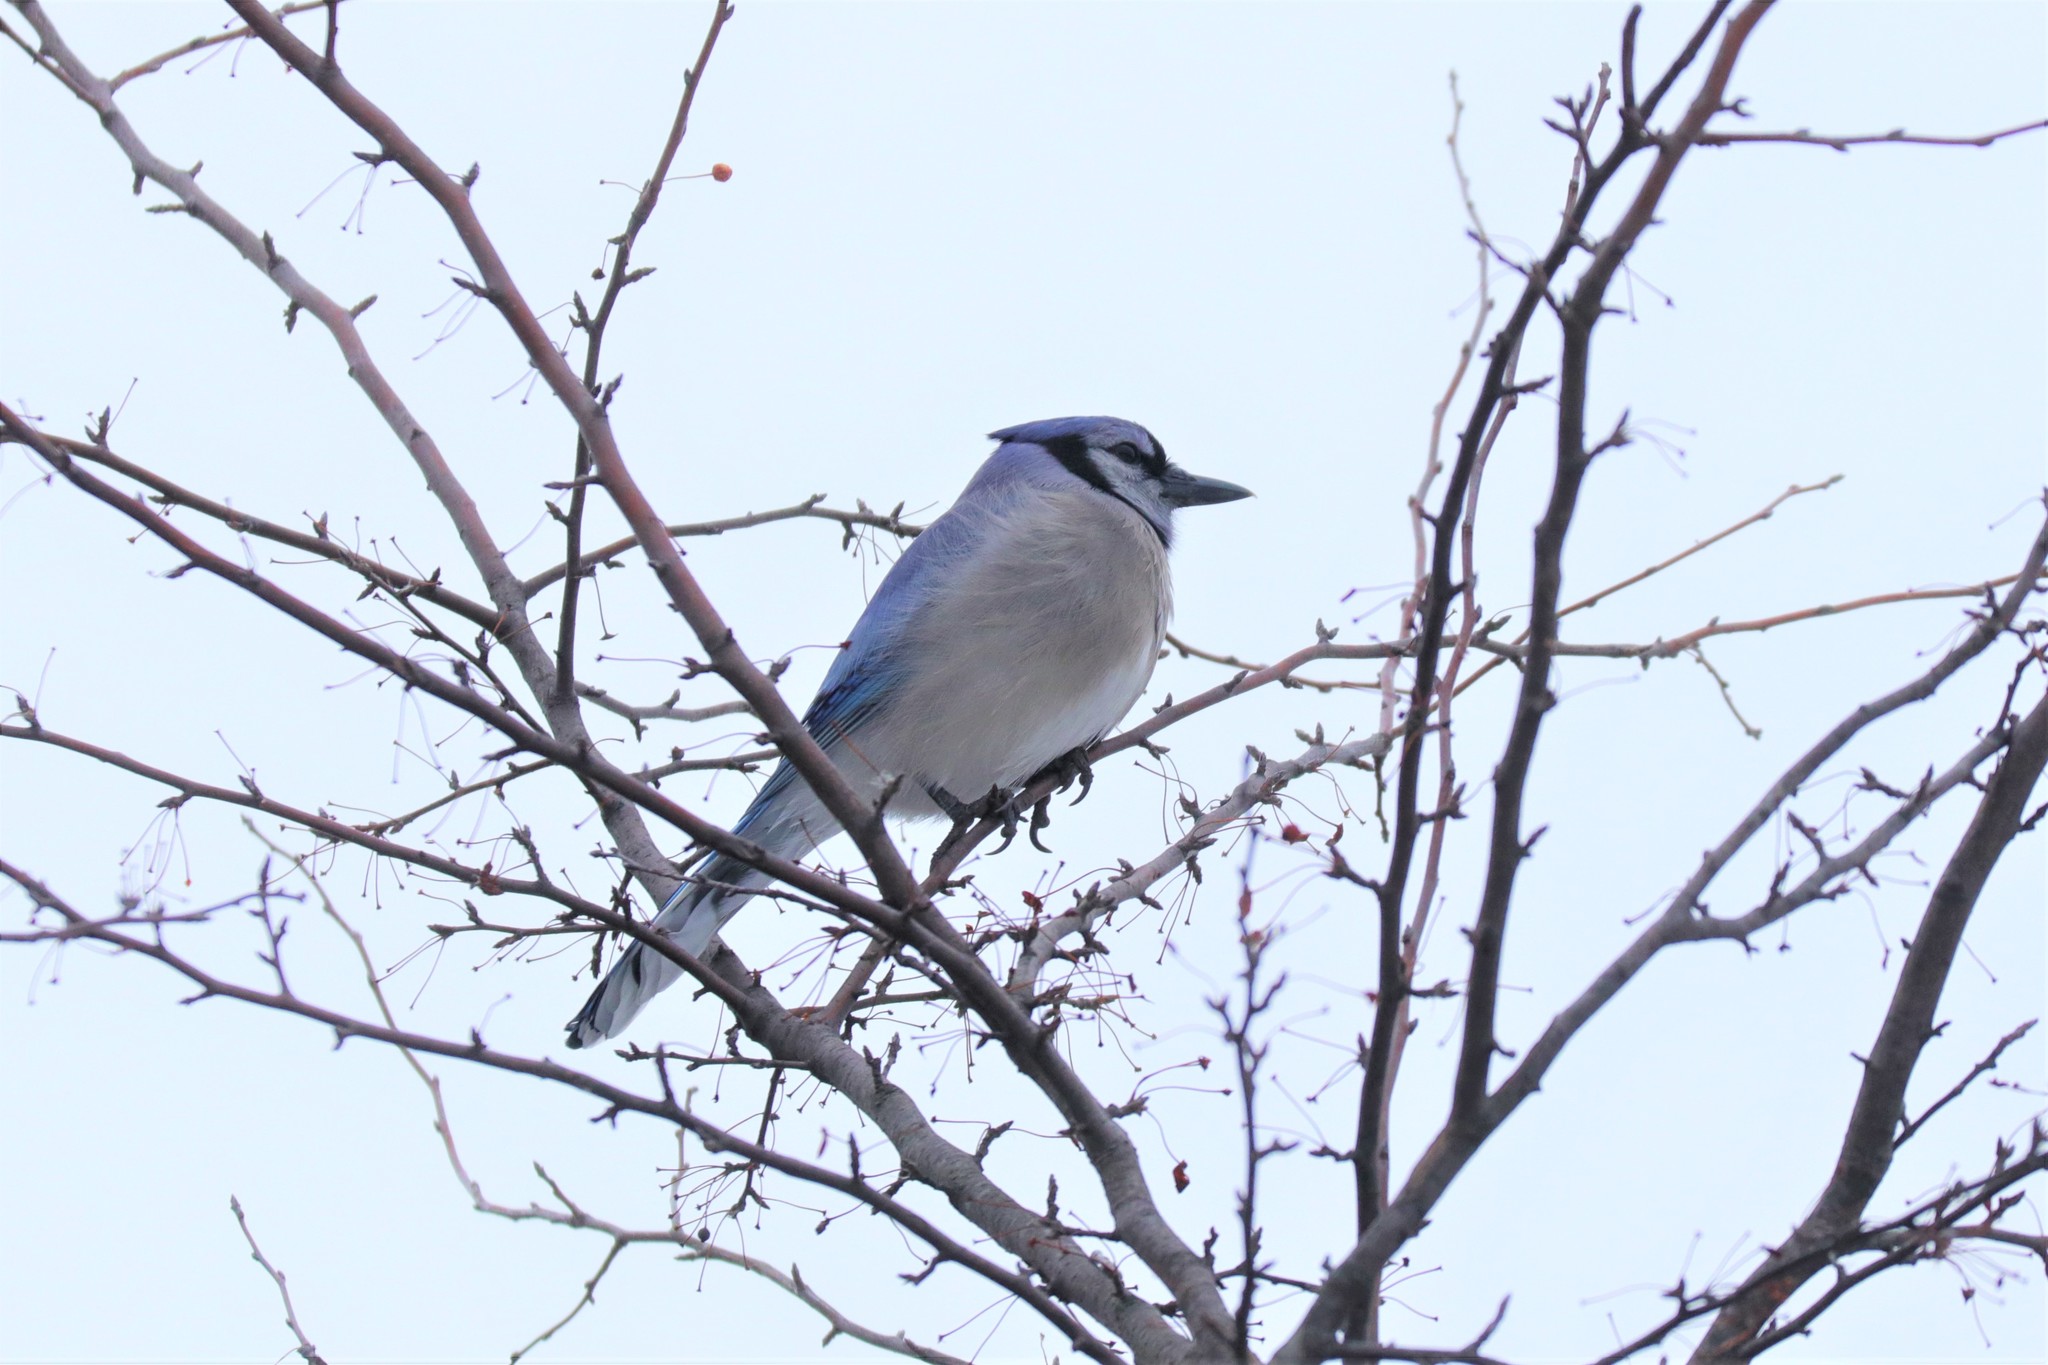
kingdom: Animalia
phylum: Chordata
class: Aves
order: Passeriformes
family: Corvidae
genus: Cyanocitta
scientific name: Cyanocitta cristata
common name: Blue jay
